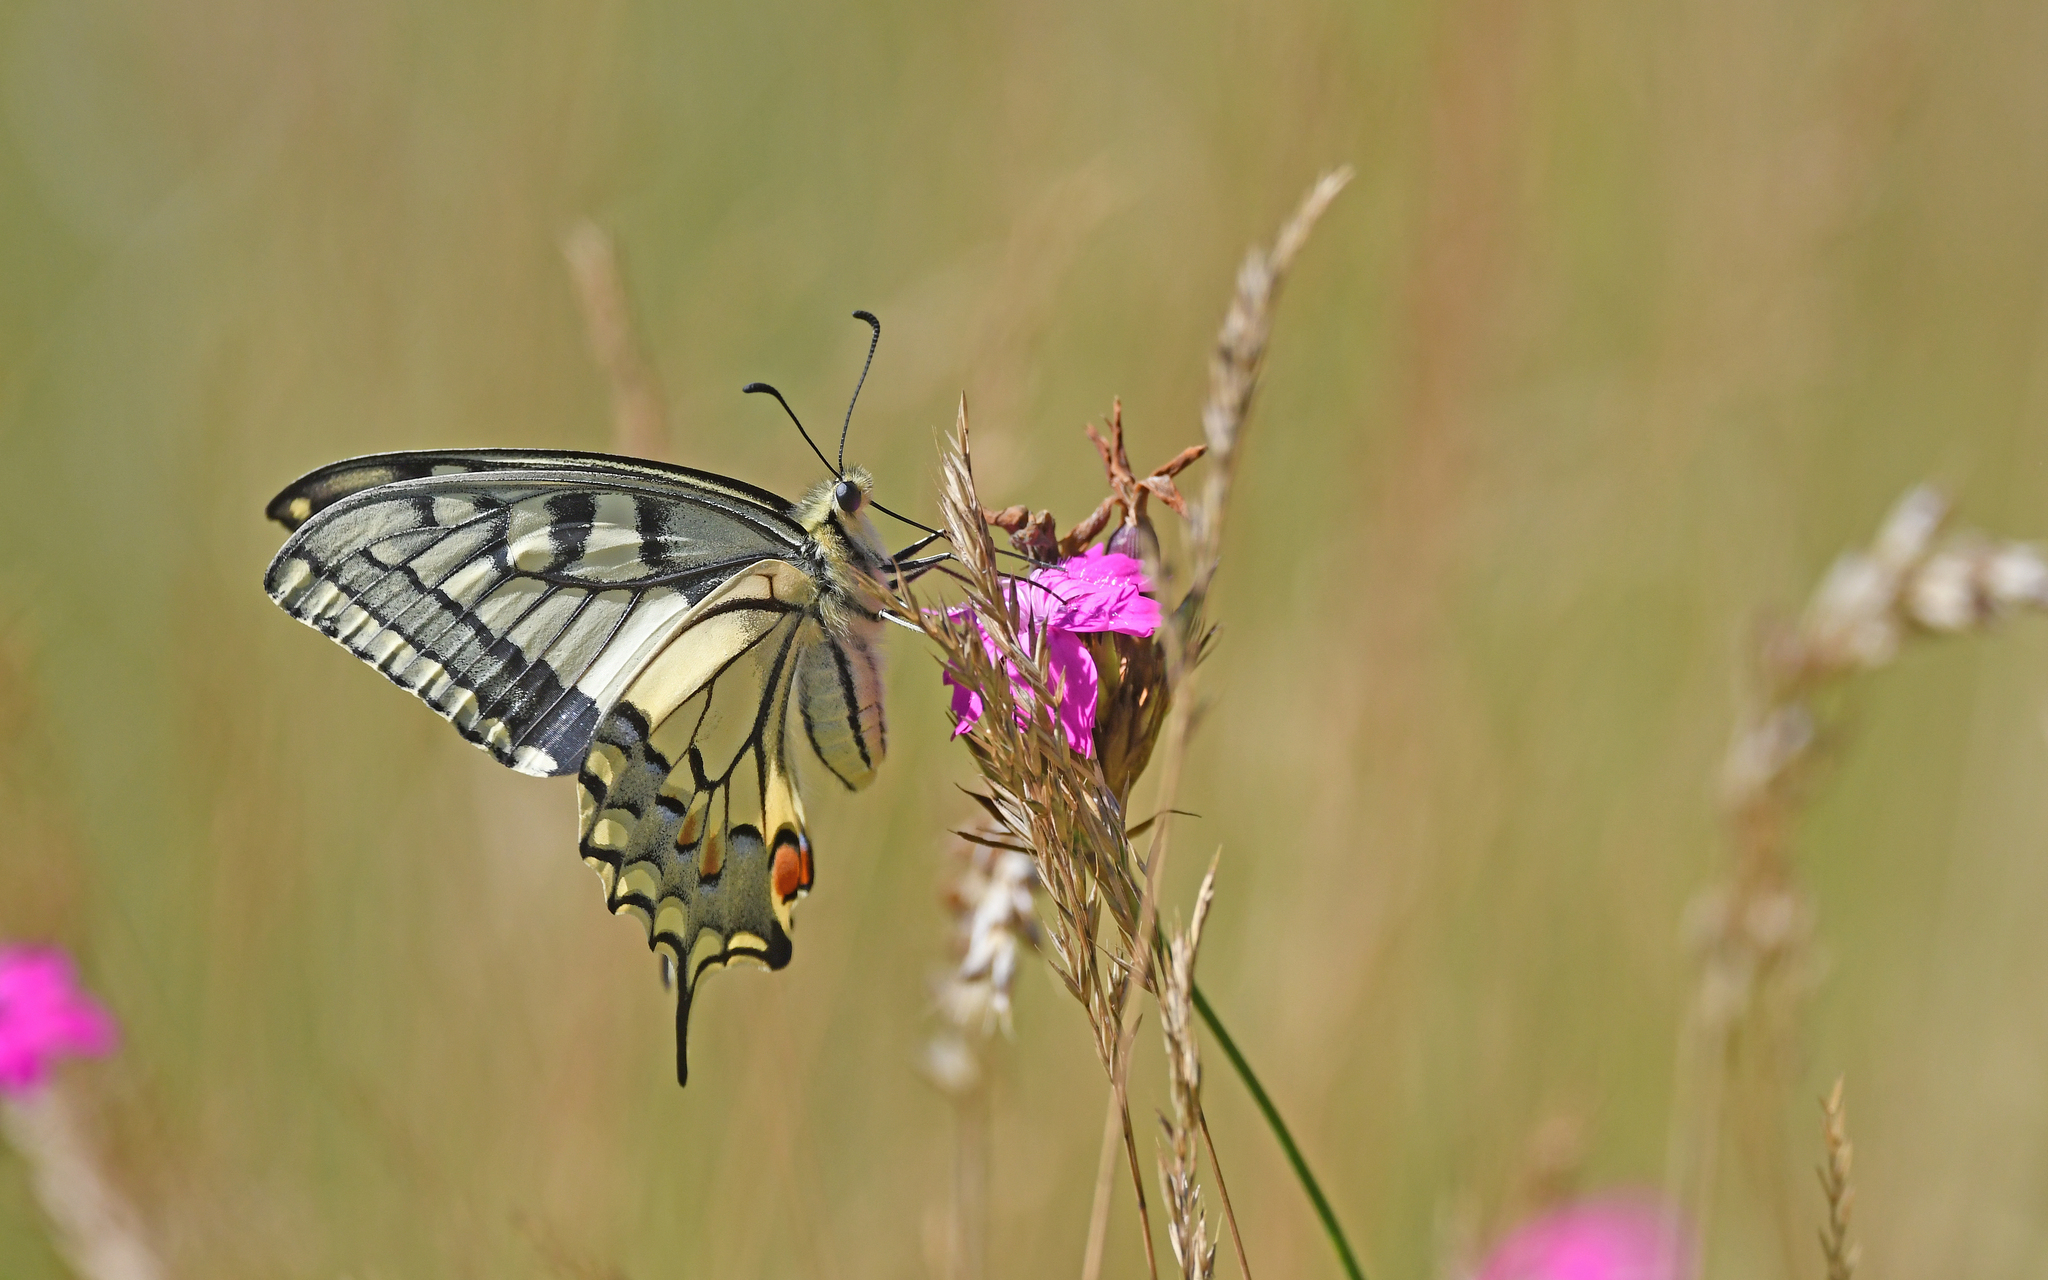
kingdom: Animalia
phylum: Arthropoda
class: Insecta
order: Lepidoptera
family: Papilionidae
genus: Papilio
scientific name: Papilio machaon
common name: Swallowtail
